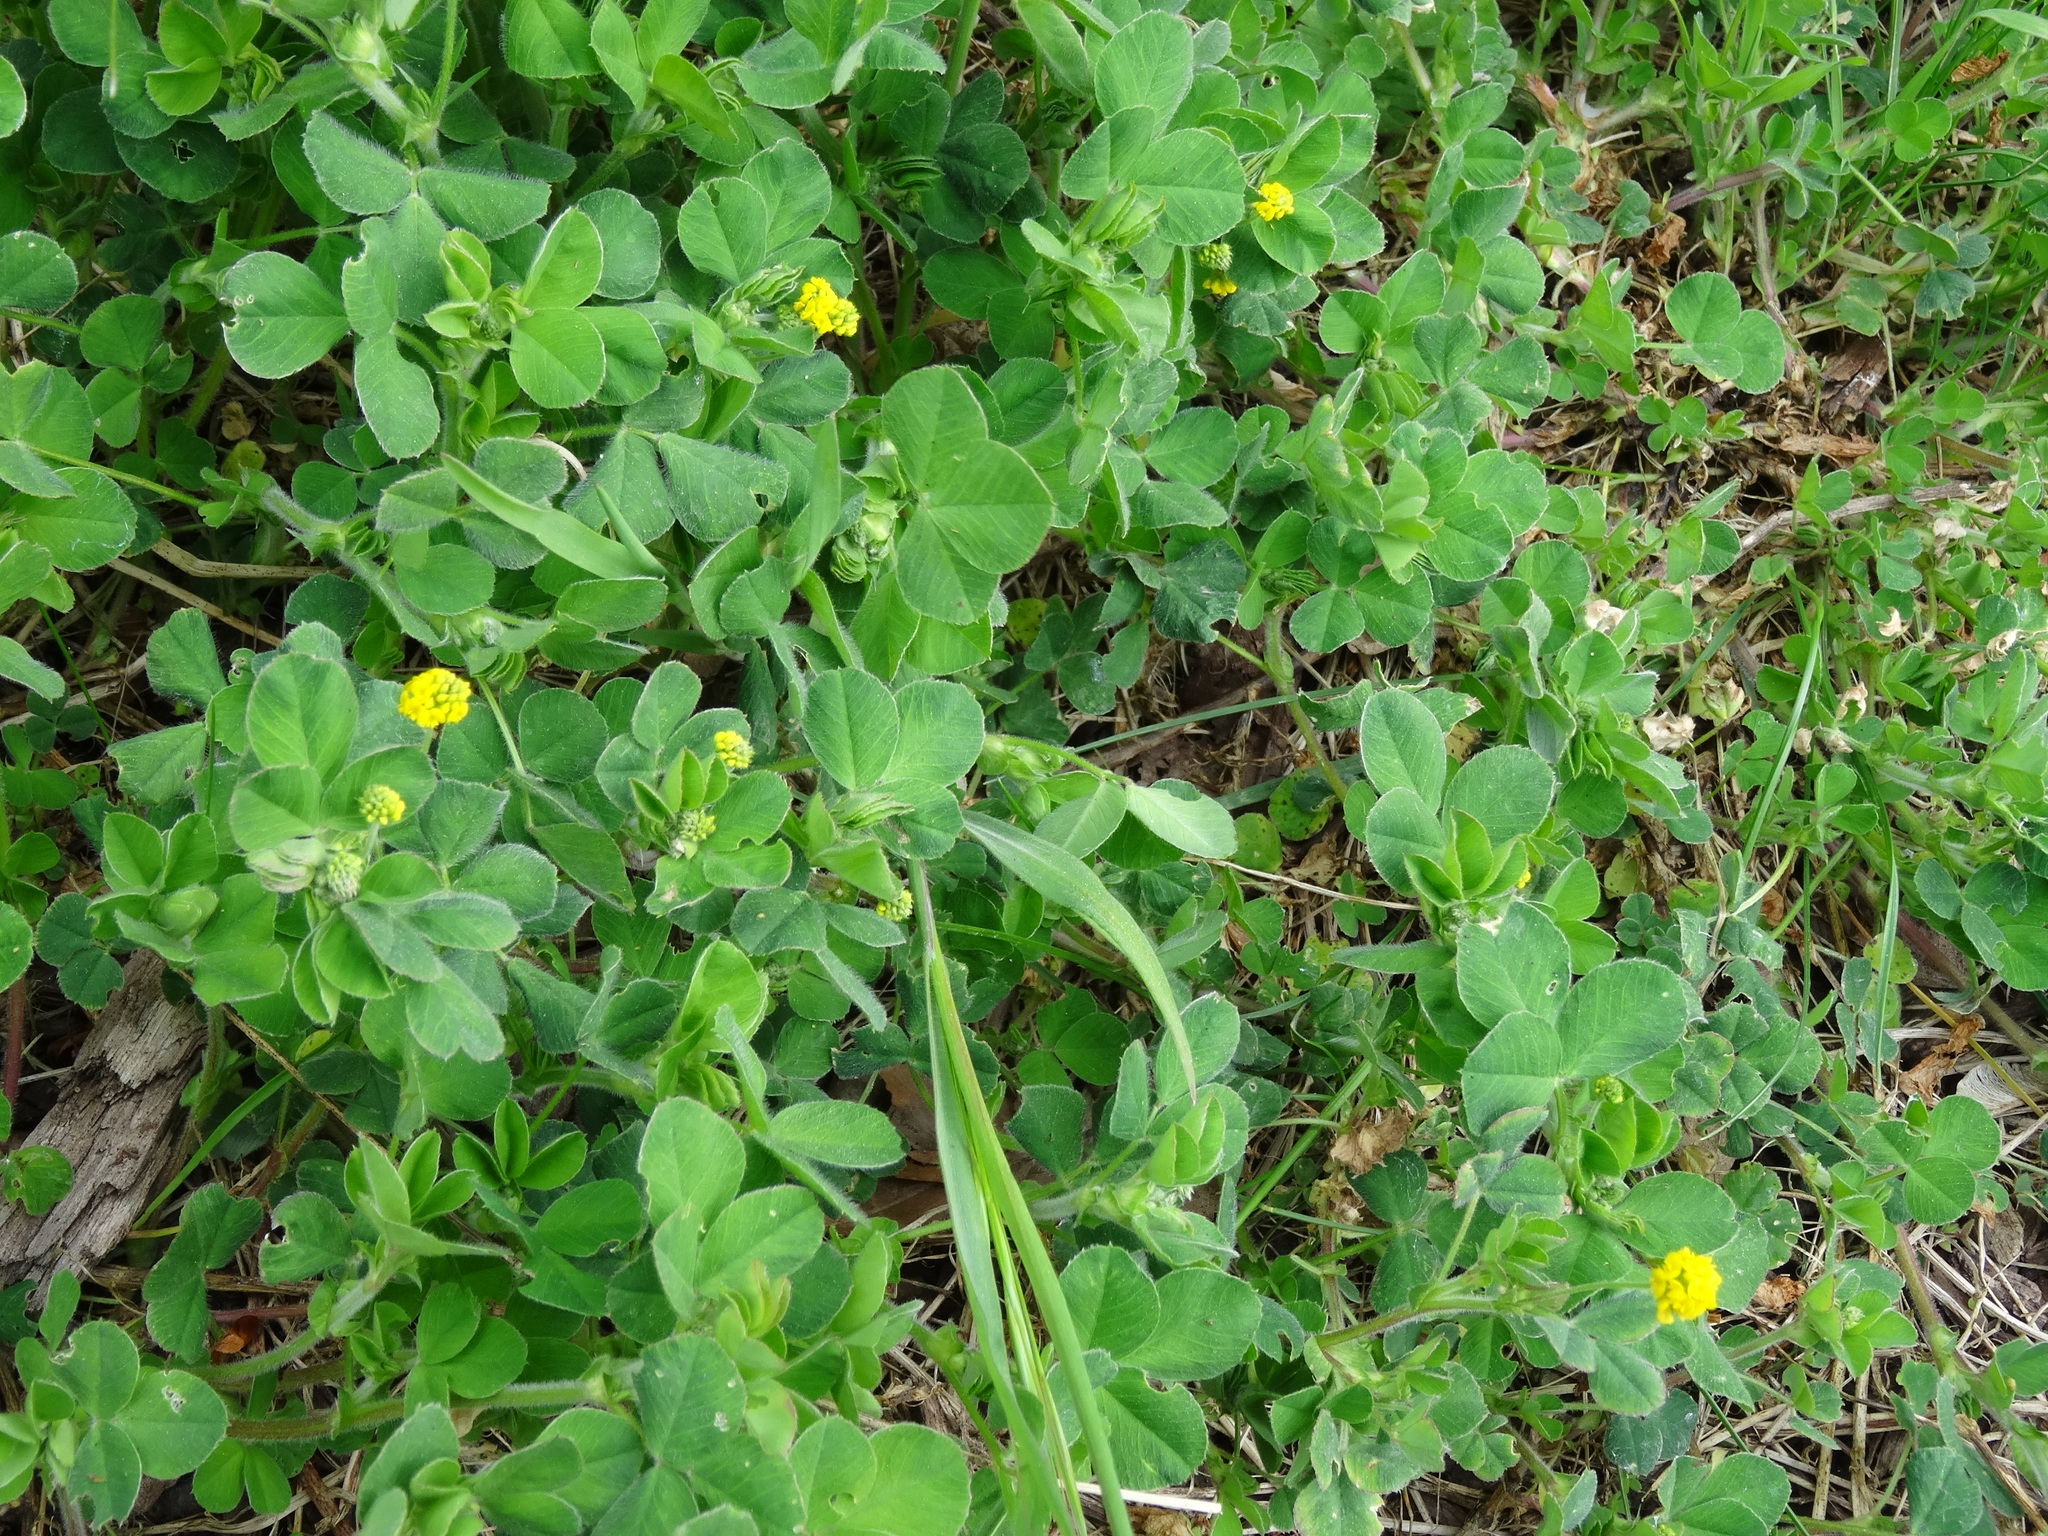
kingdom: Plantae
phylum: Tracheophyta
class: Magnoliopsida
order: Fabales
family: Fabaceae
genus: Medicago
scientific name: Medicago lupulina
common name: Black medick
